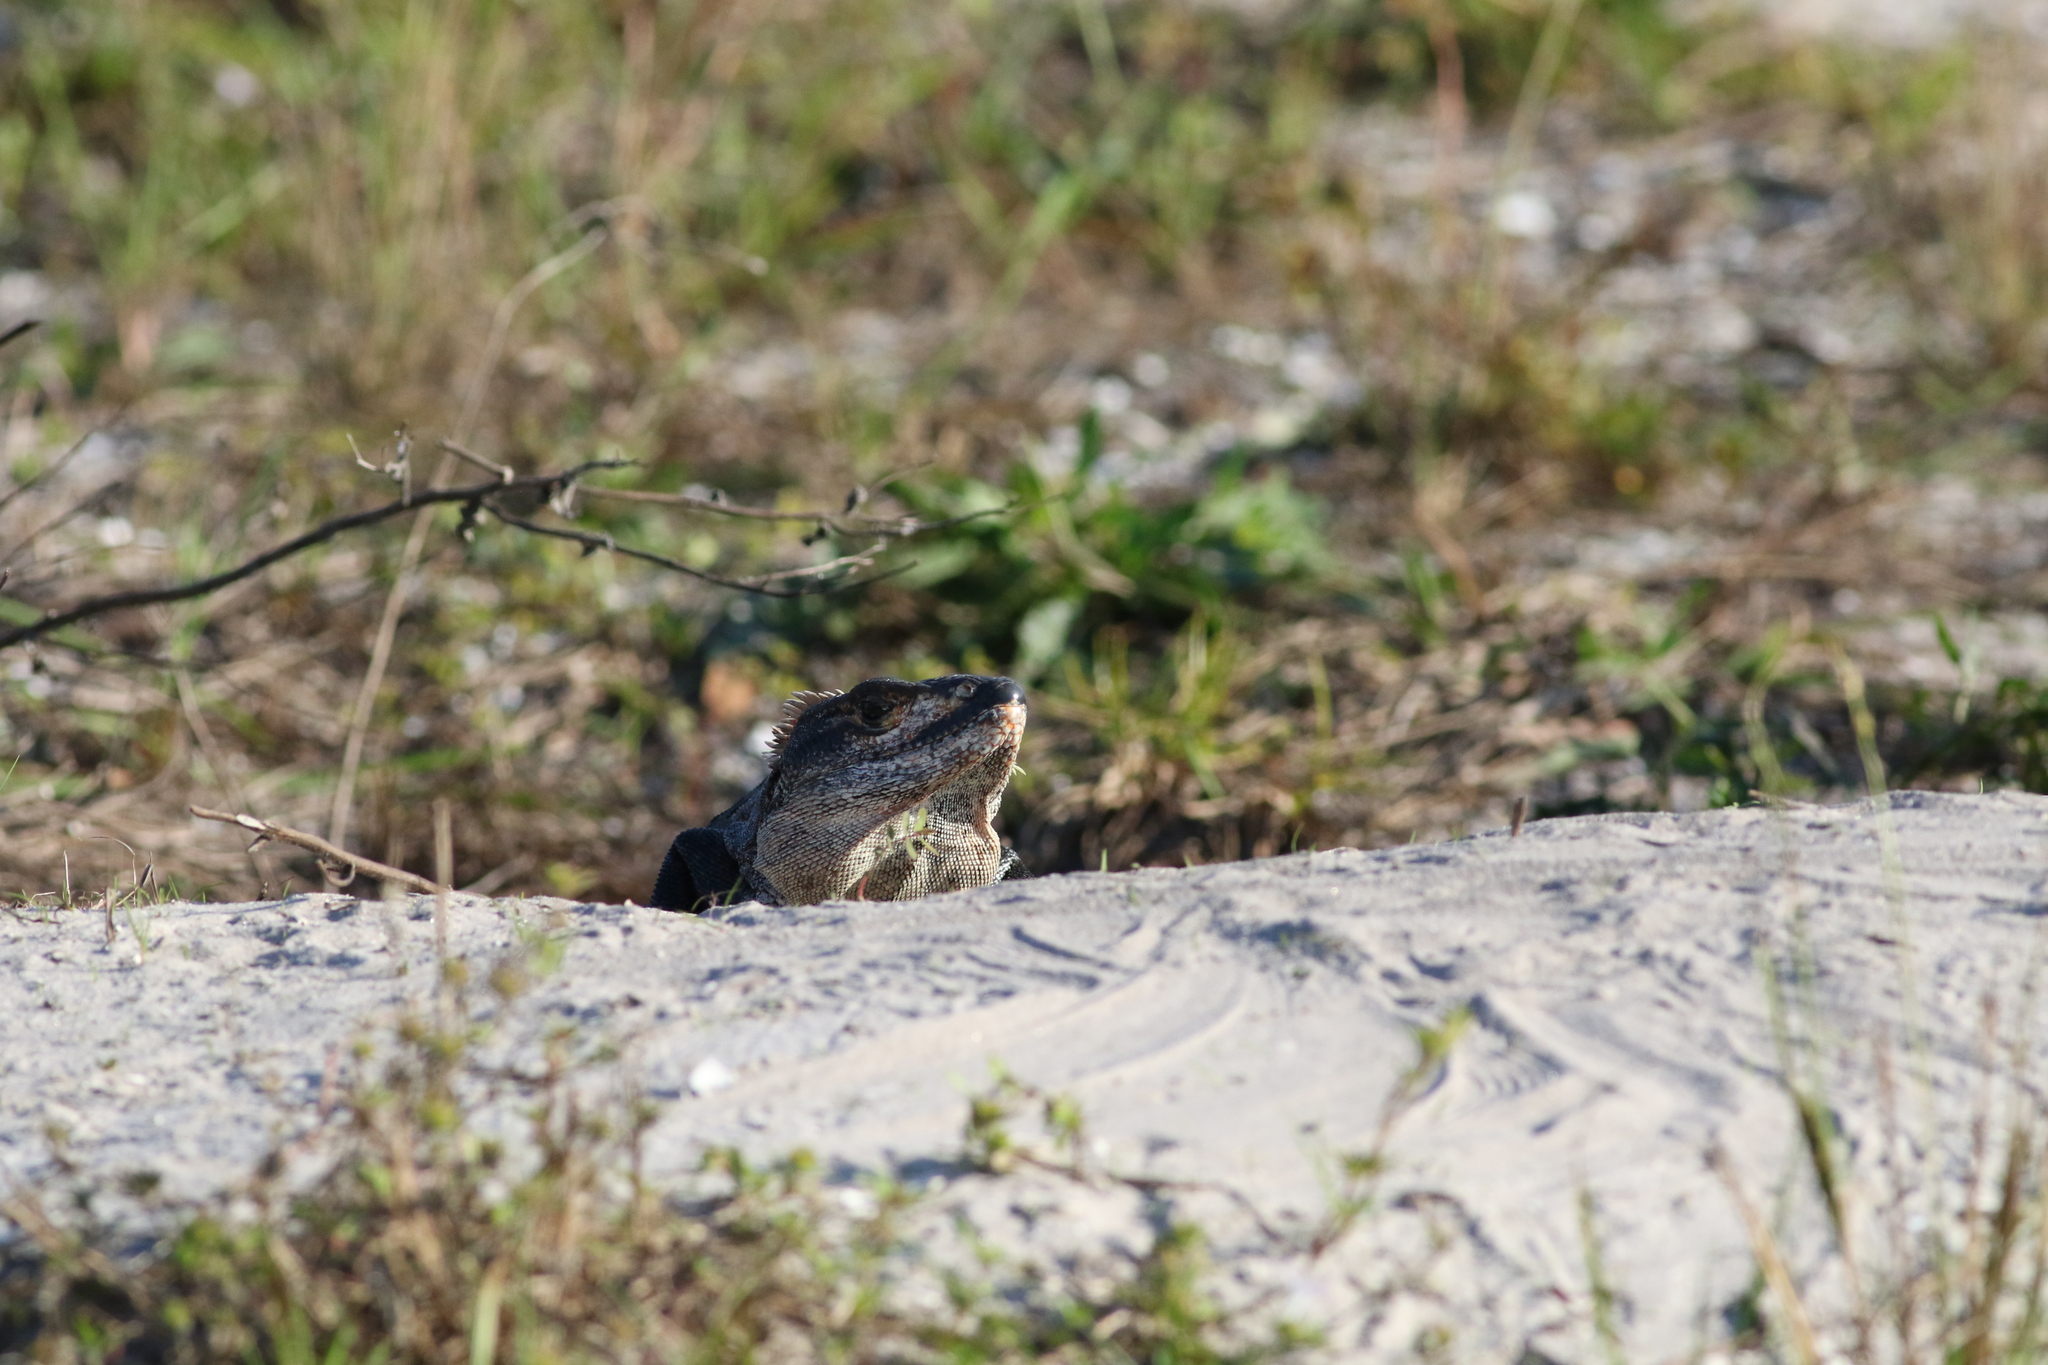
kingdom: Animalia
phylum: Chordata
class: Squamata
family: Iguanidae
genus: Ctenosaura
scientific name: Ctenosaura similis
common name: Black spiny-tailed iguana
